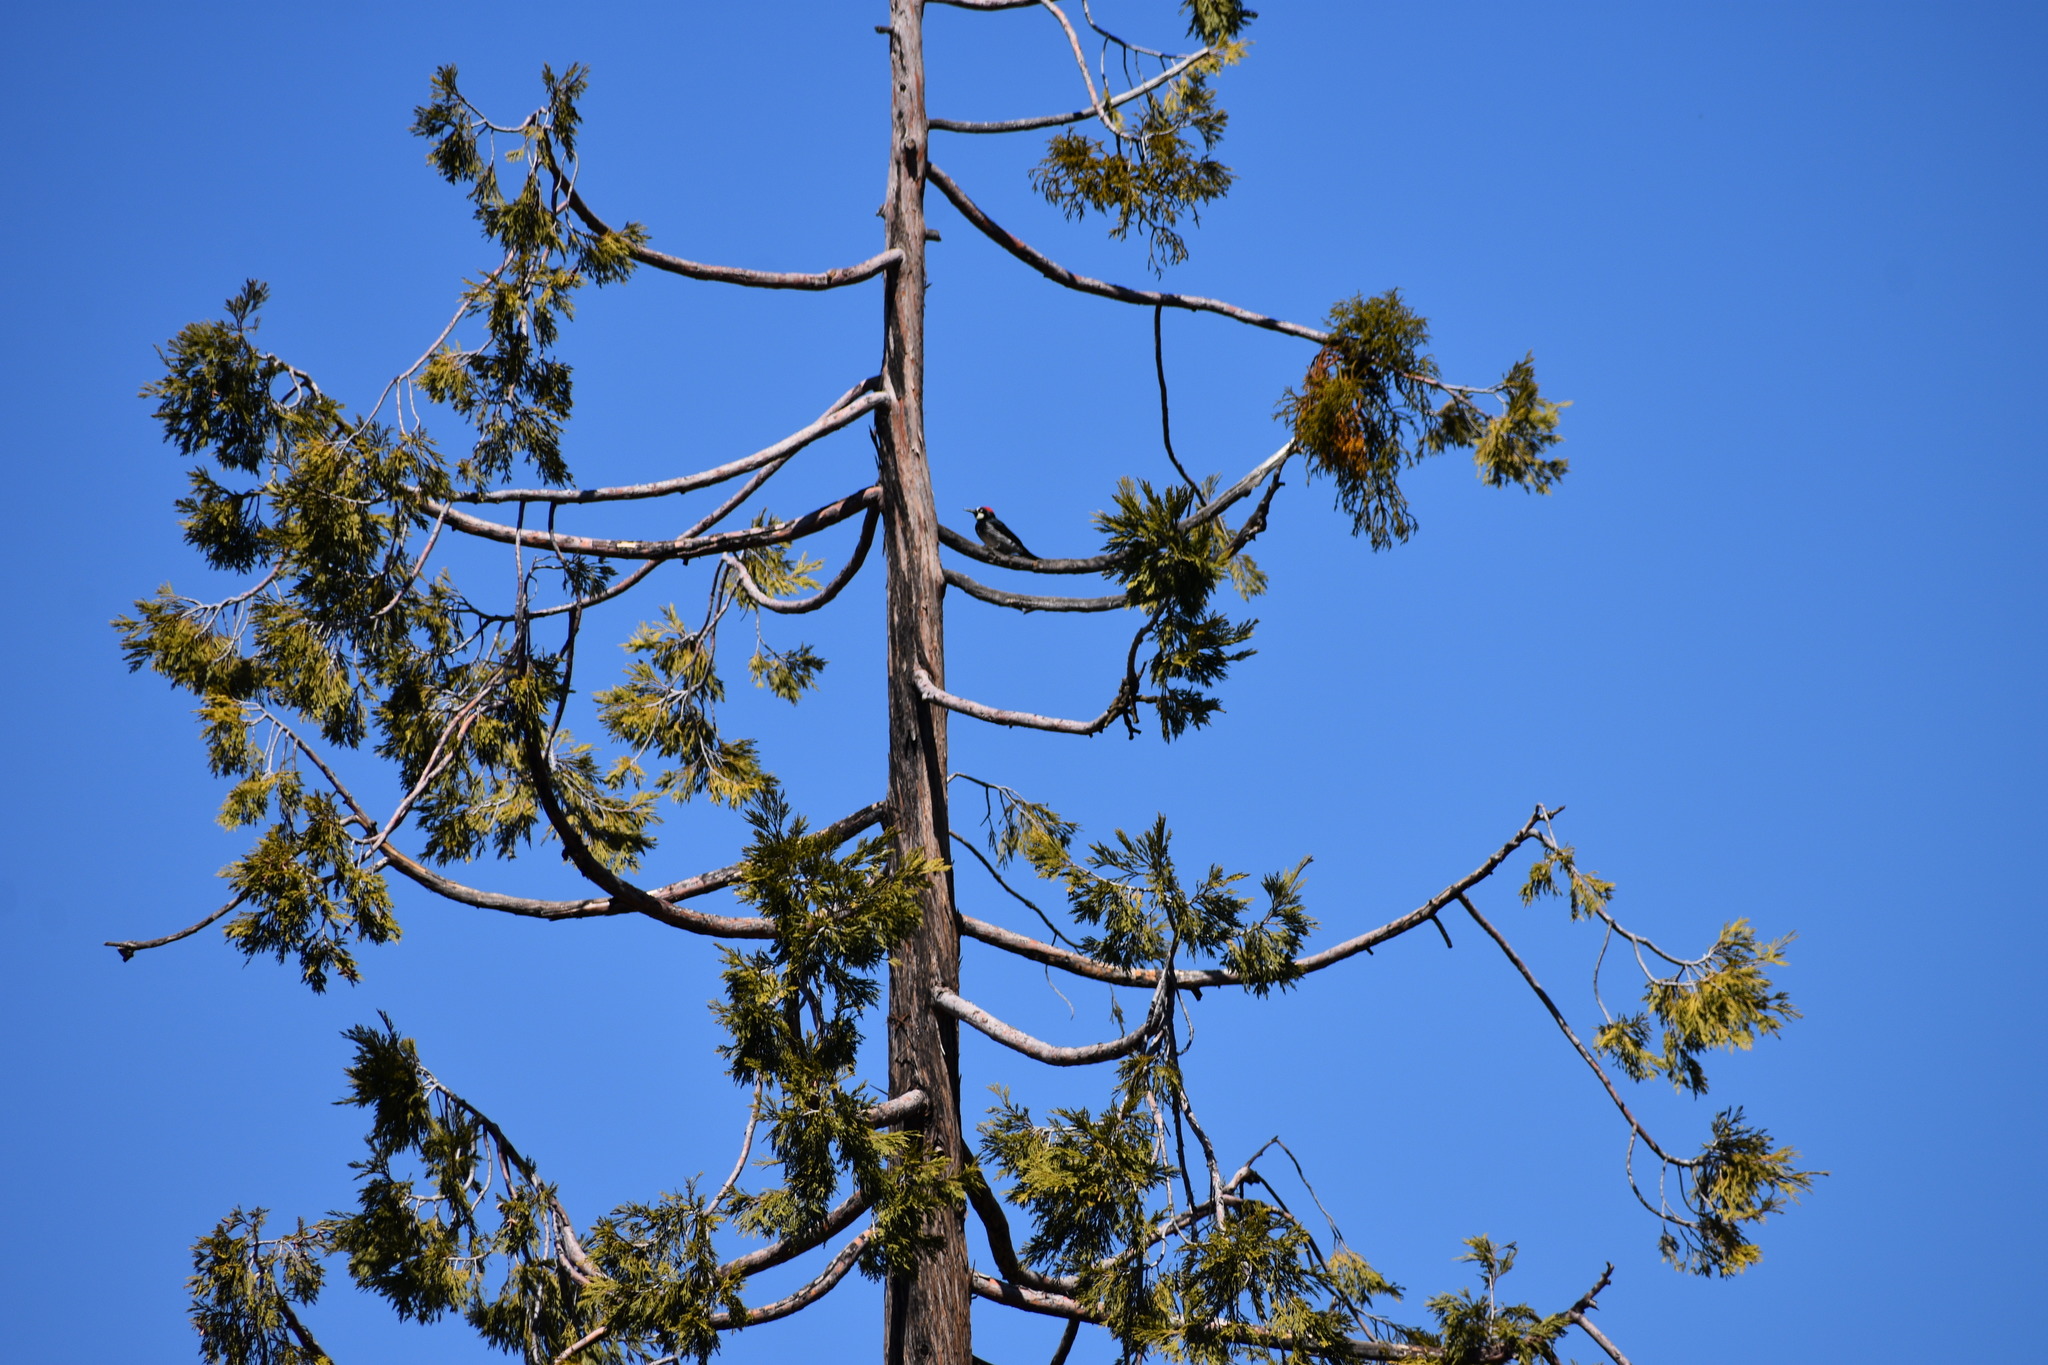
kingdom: Animalia
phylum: Chordata
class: Aves
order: Piciformes
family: Picidae
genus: Melanerpes
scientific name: Melanerpes formicivorus
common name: Acorn woodpecker
